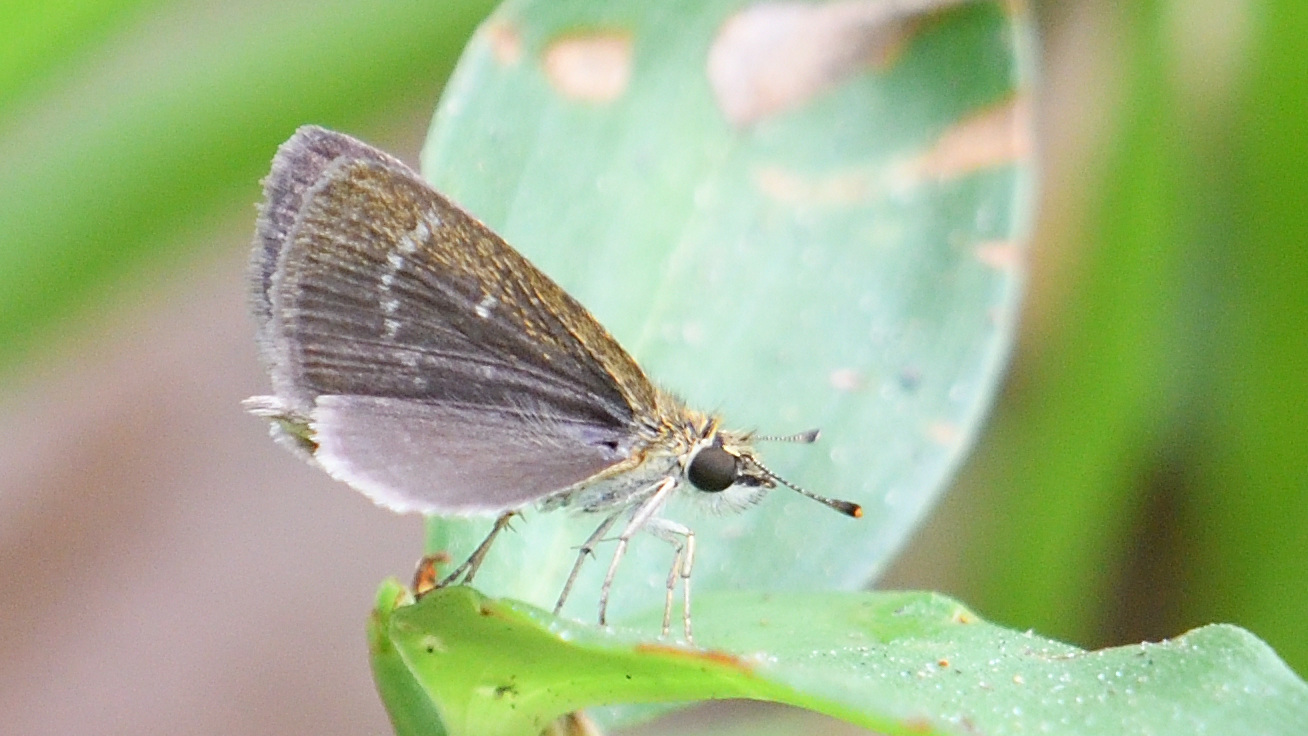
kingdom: Animalia
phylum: Arthropoda
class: Insecta
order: Lepidoptera
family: Hesperiidae
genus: Aeromachus
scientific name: Aeromachus pygmaeus
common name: Pygmy scrub hopper
